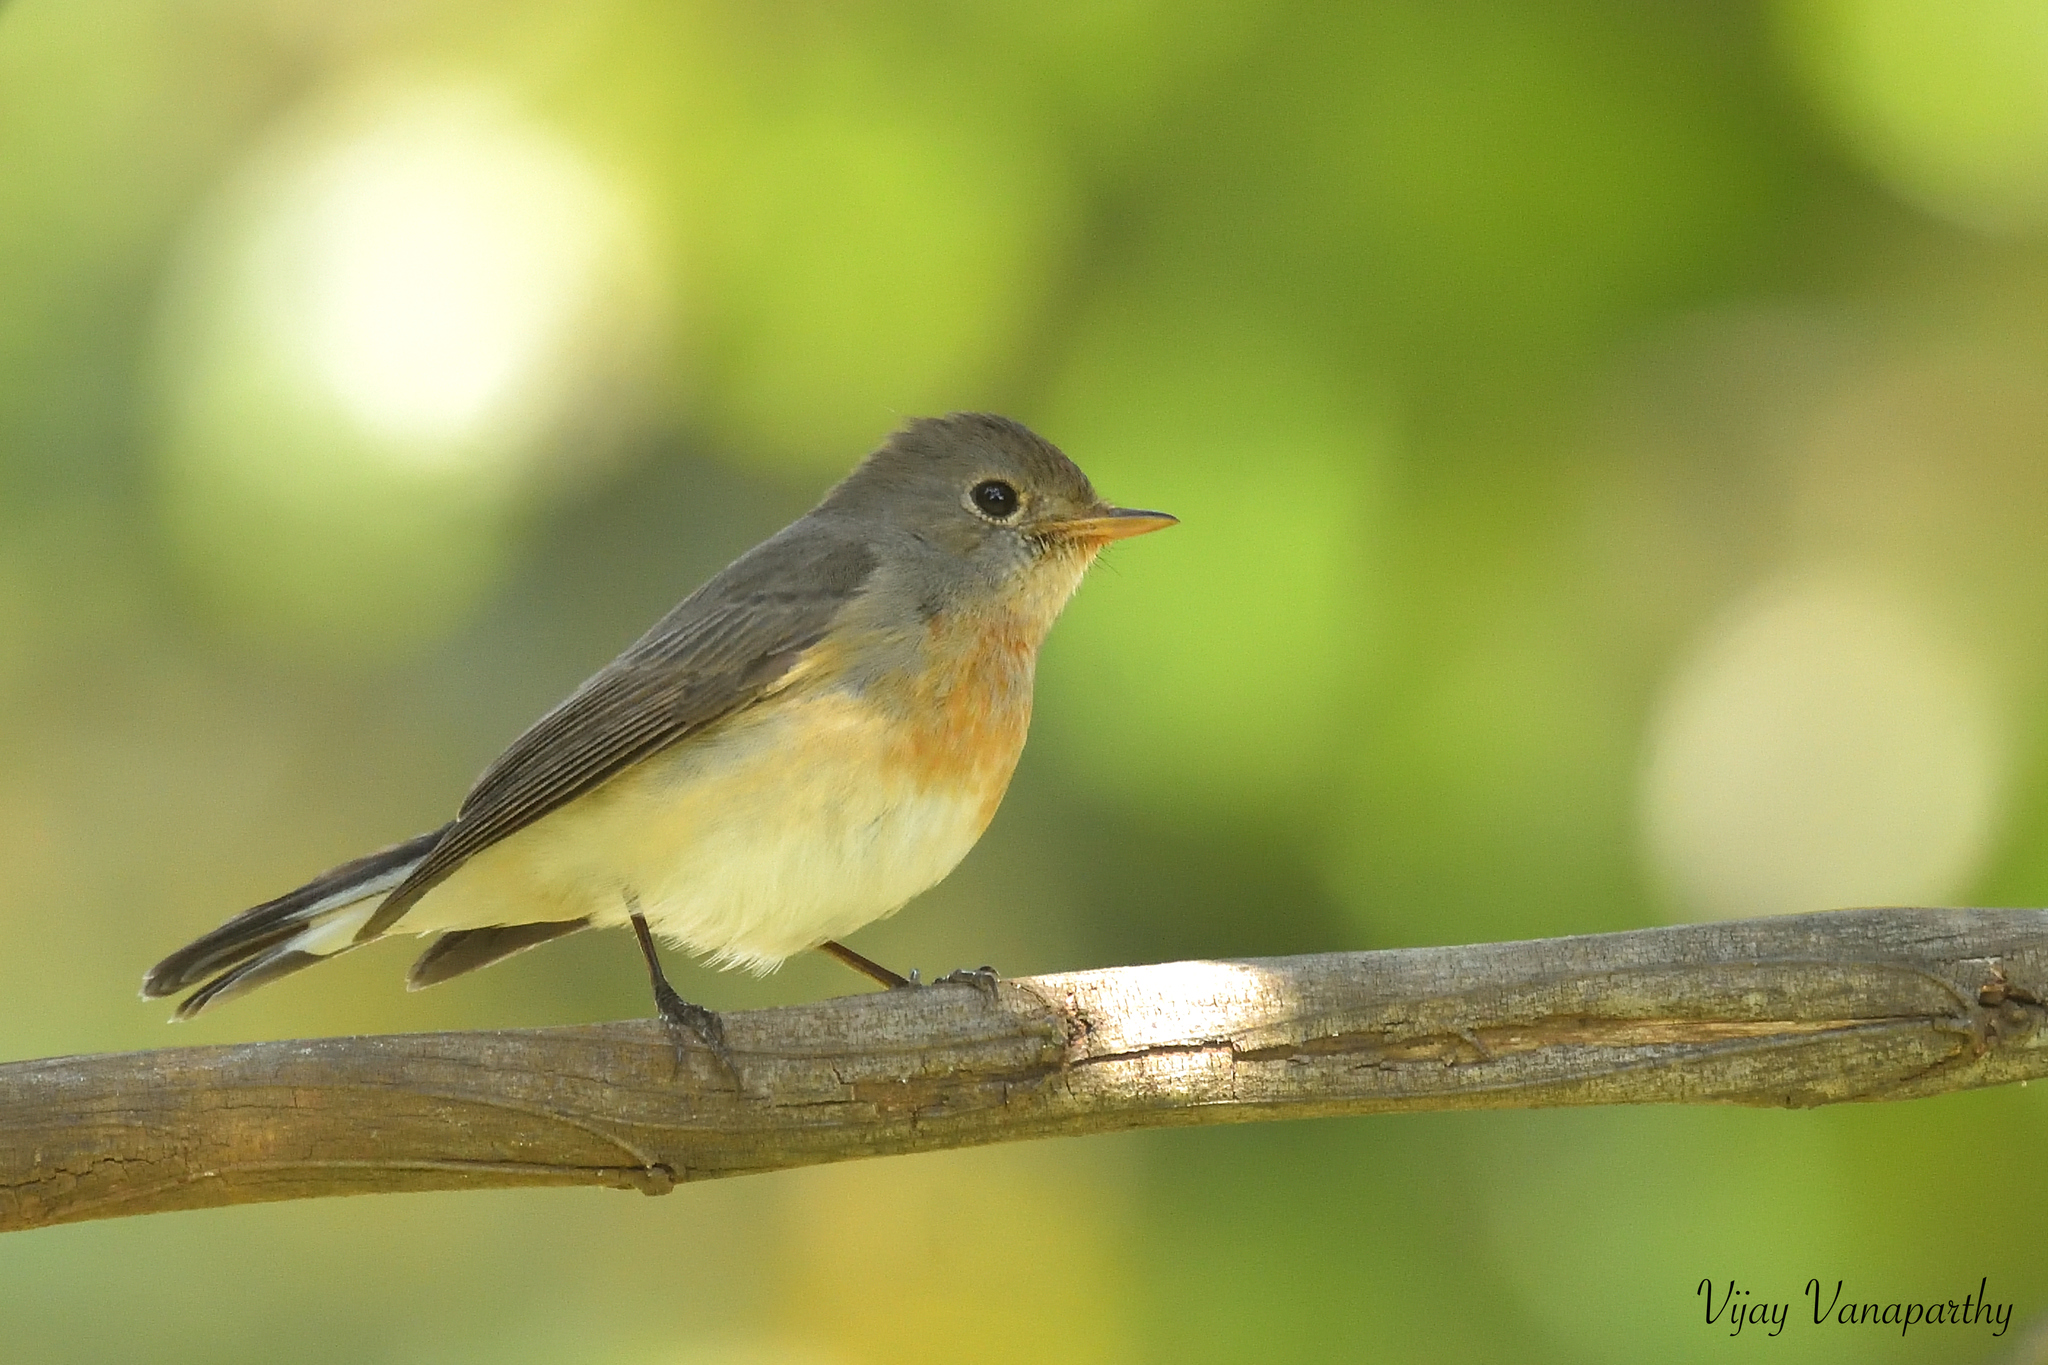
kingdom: Animalia
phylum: Chordata
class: Aves
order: Passeriformes
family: Muscicapidae
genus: Ficedula
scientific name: Ficedula subrubra
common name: Kashmir flycatcher
